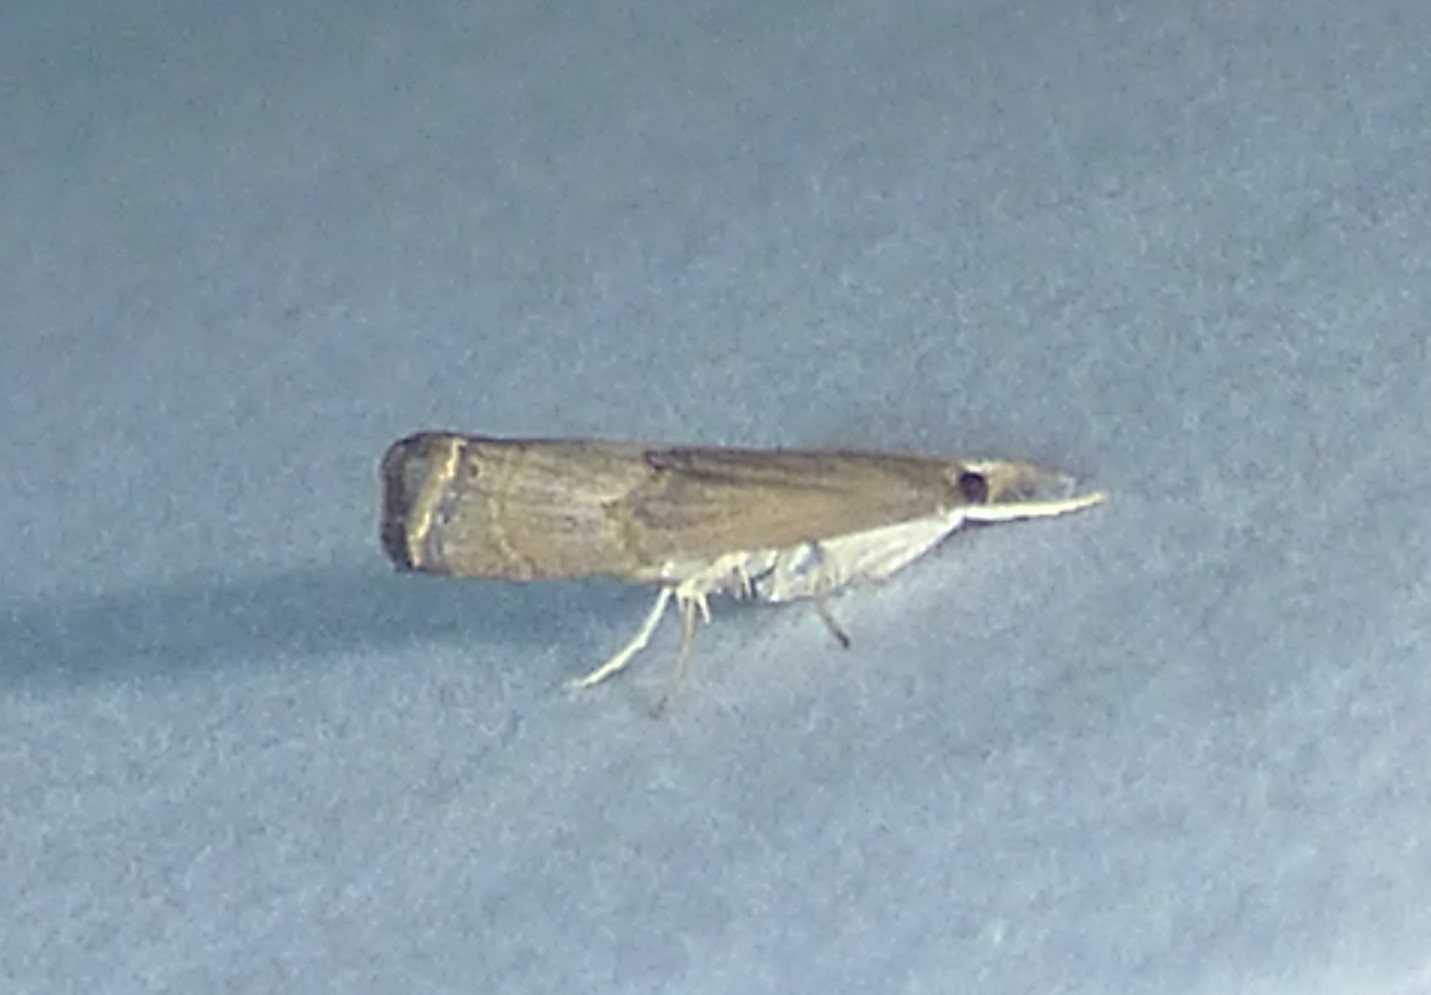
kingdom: Animalia
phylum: Arthropoda
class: Insecta
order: Lepidoptera
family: Crambidae
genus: Parapediasia
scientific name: Parapediasia teterellus
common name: Bluegrass webworm moth
